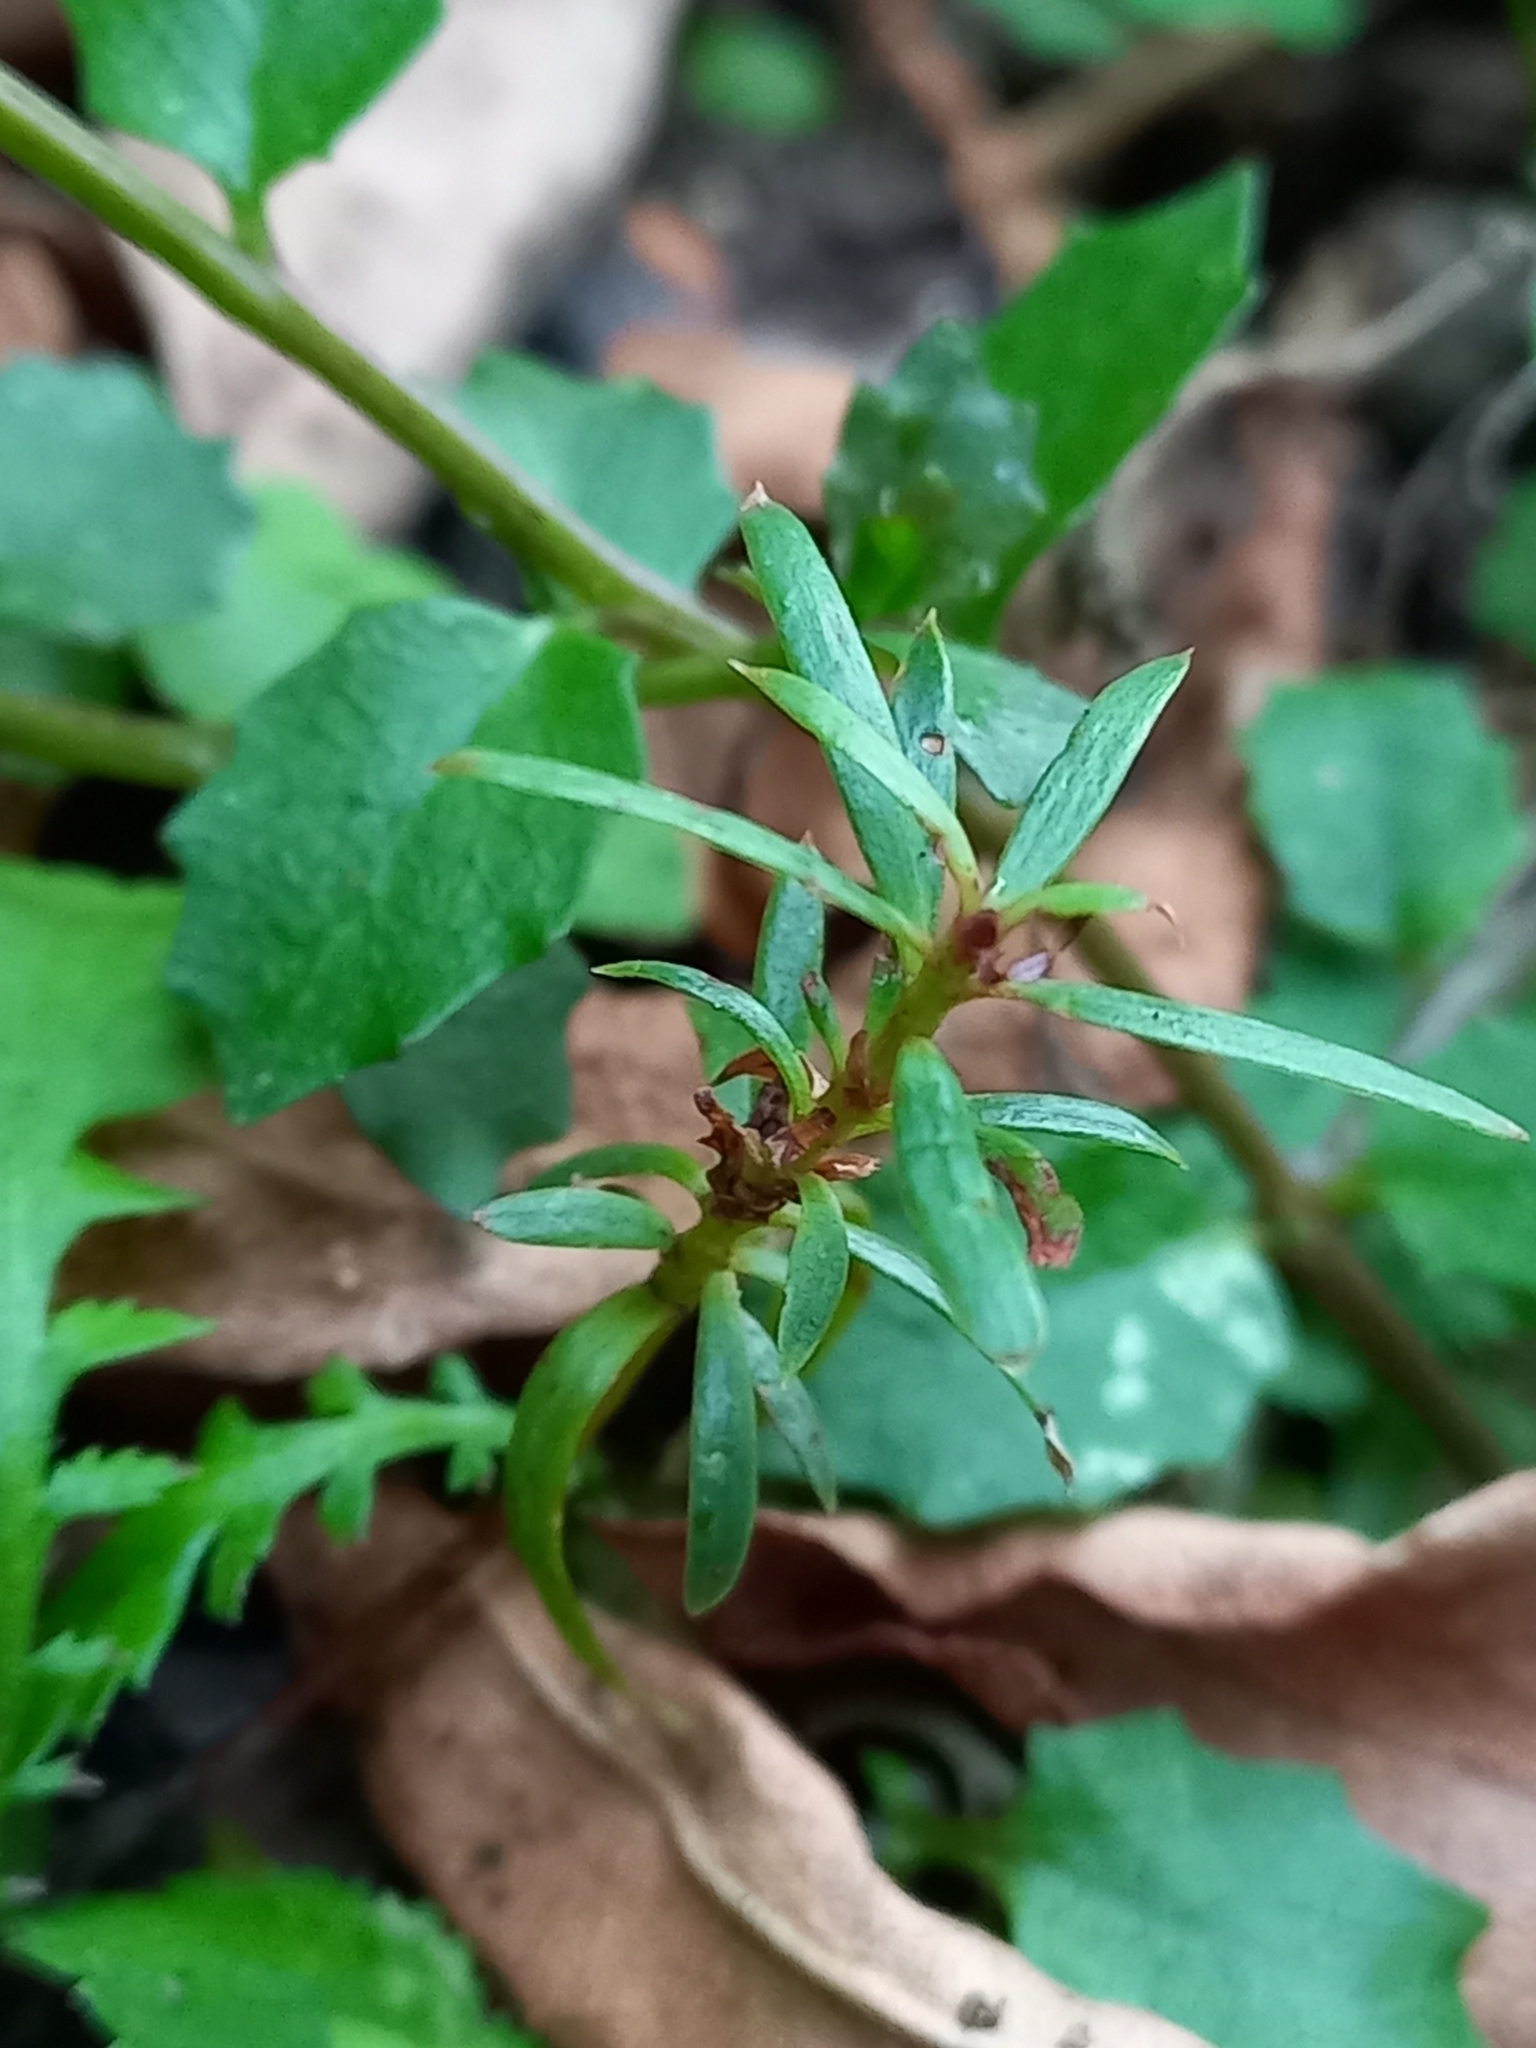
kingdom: Plantae
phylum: Tracheophyta
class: Magnoliopsida
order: Myrtales
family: Myrtaceae
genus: Kunzea
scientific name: Kunzea robusta
